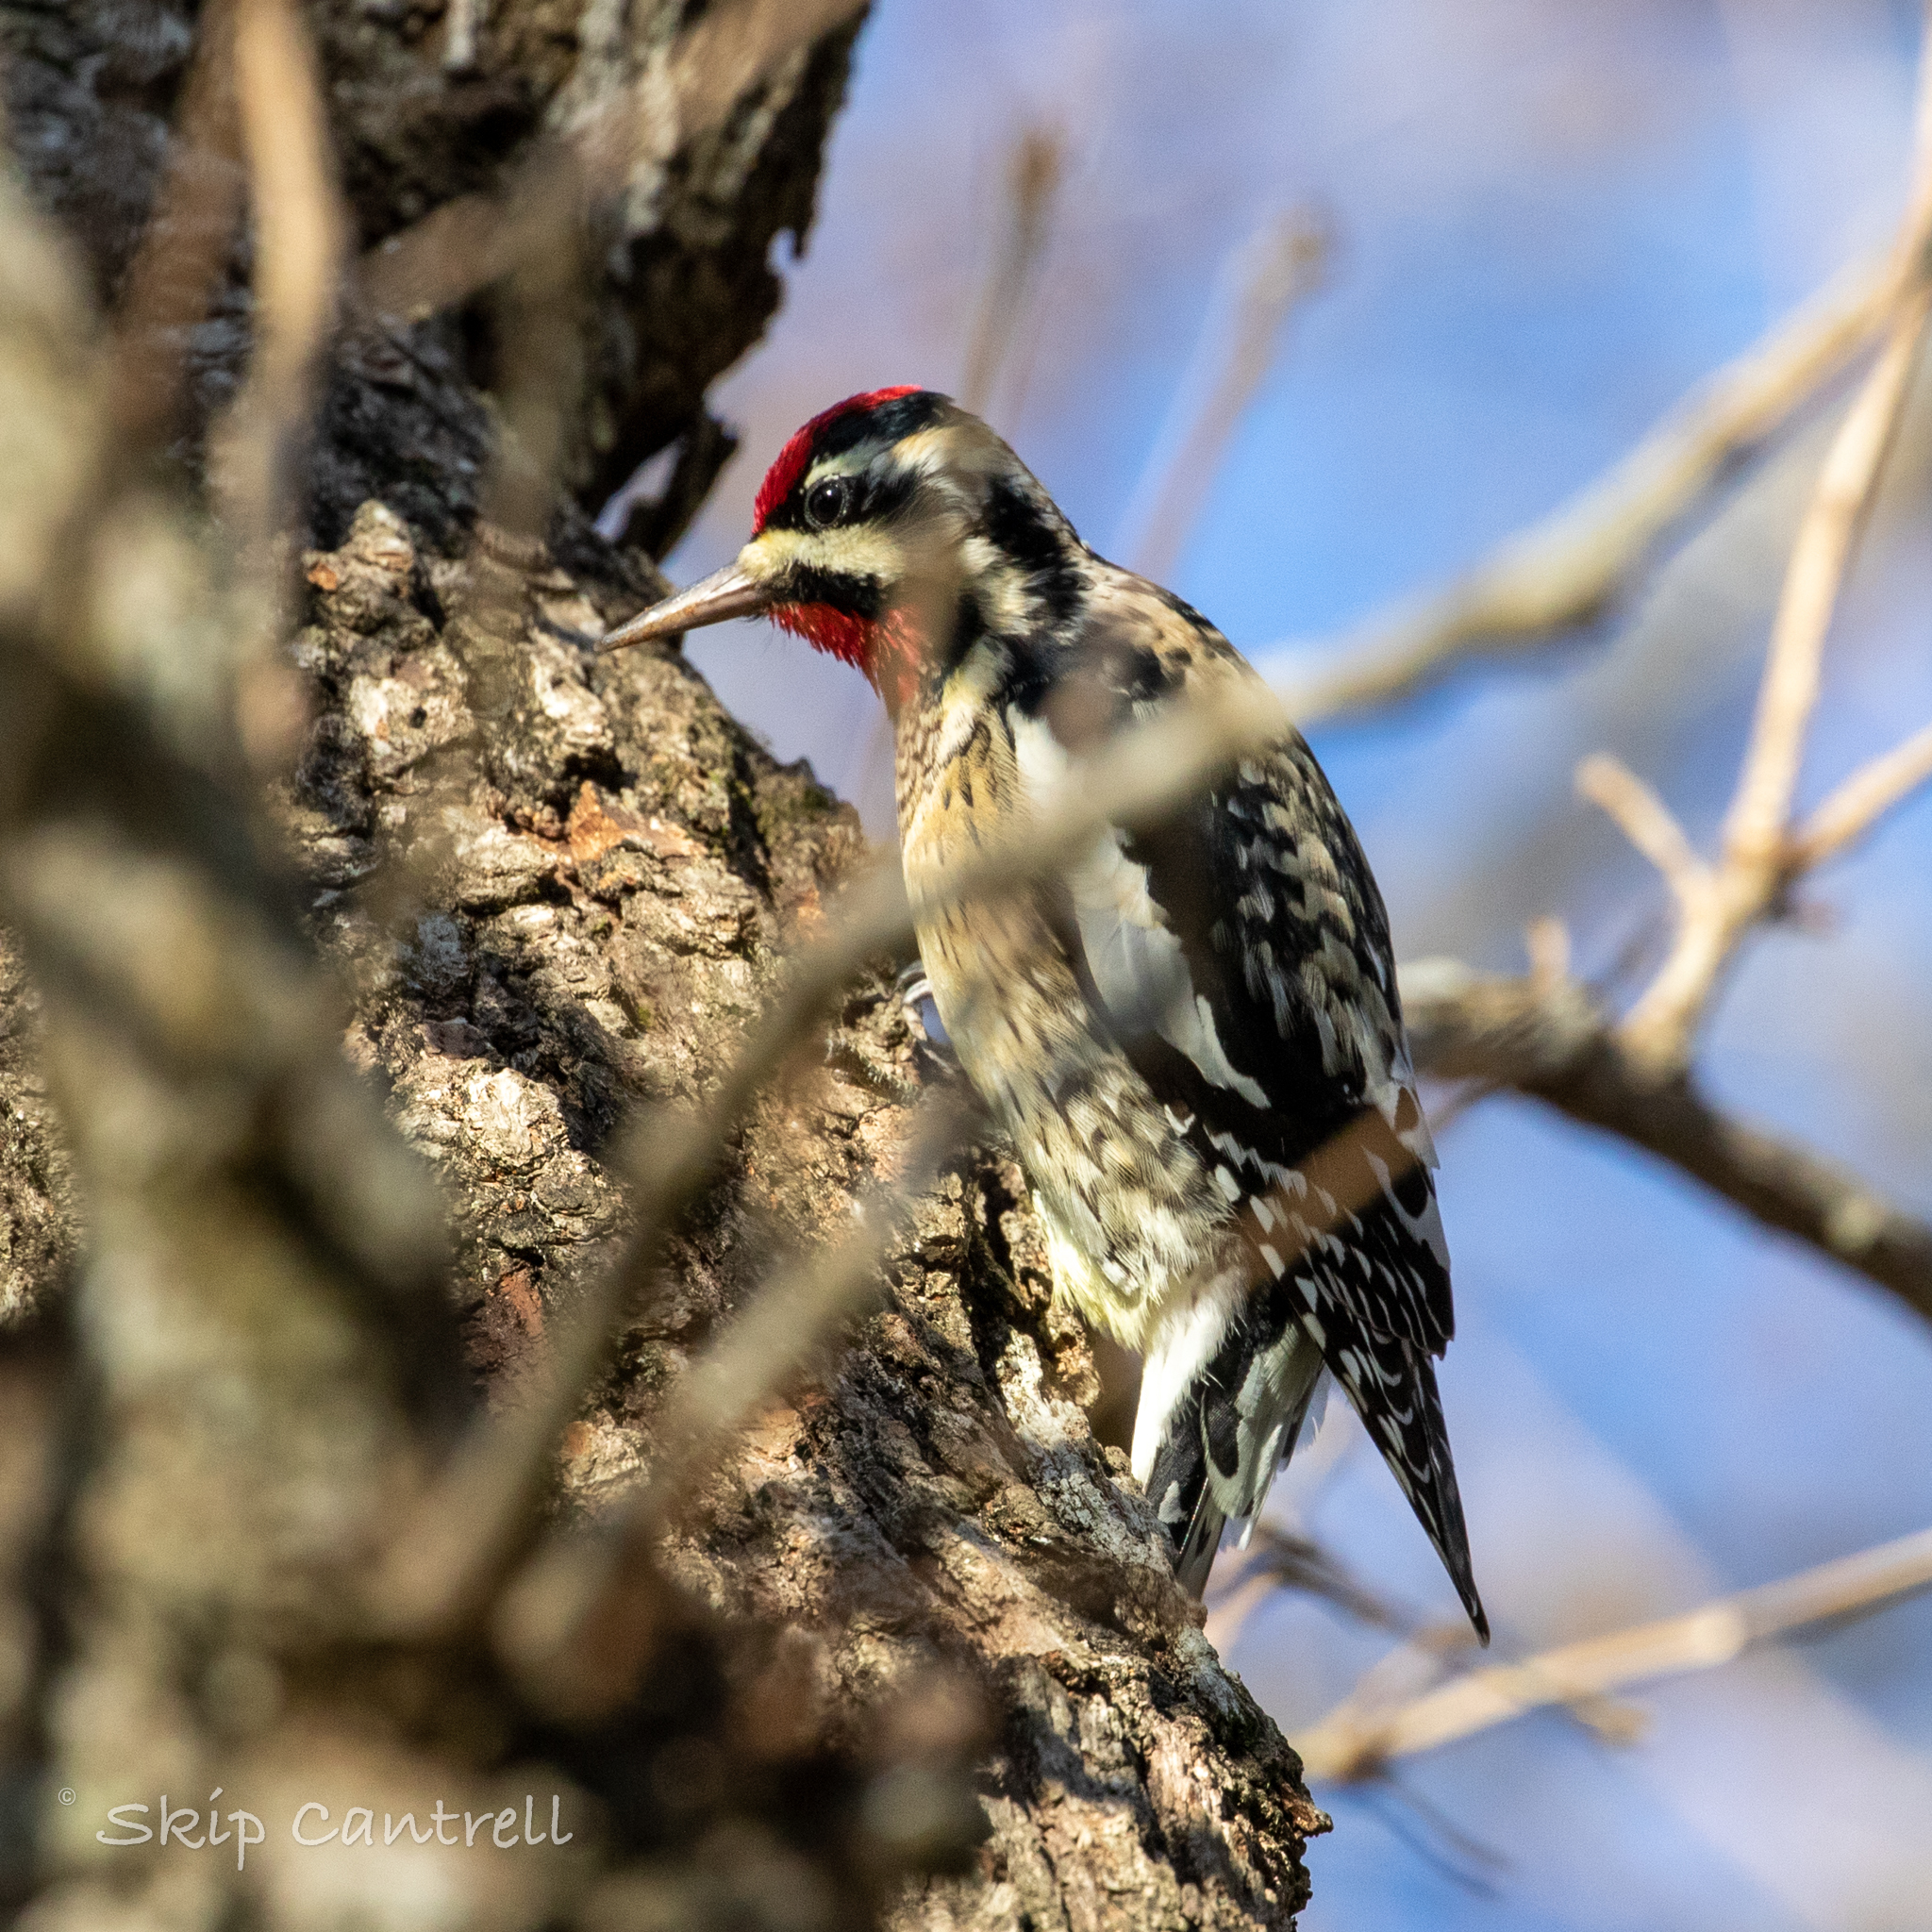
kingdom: Animalia
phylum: Chordata
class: Aves
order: Piciformes
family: Picidae
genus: Sphyrapicus
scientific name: Sphyrapicus varius
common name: Yellow-bellied sapsucker
